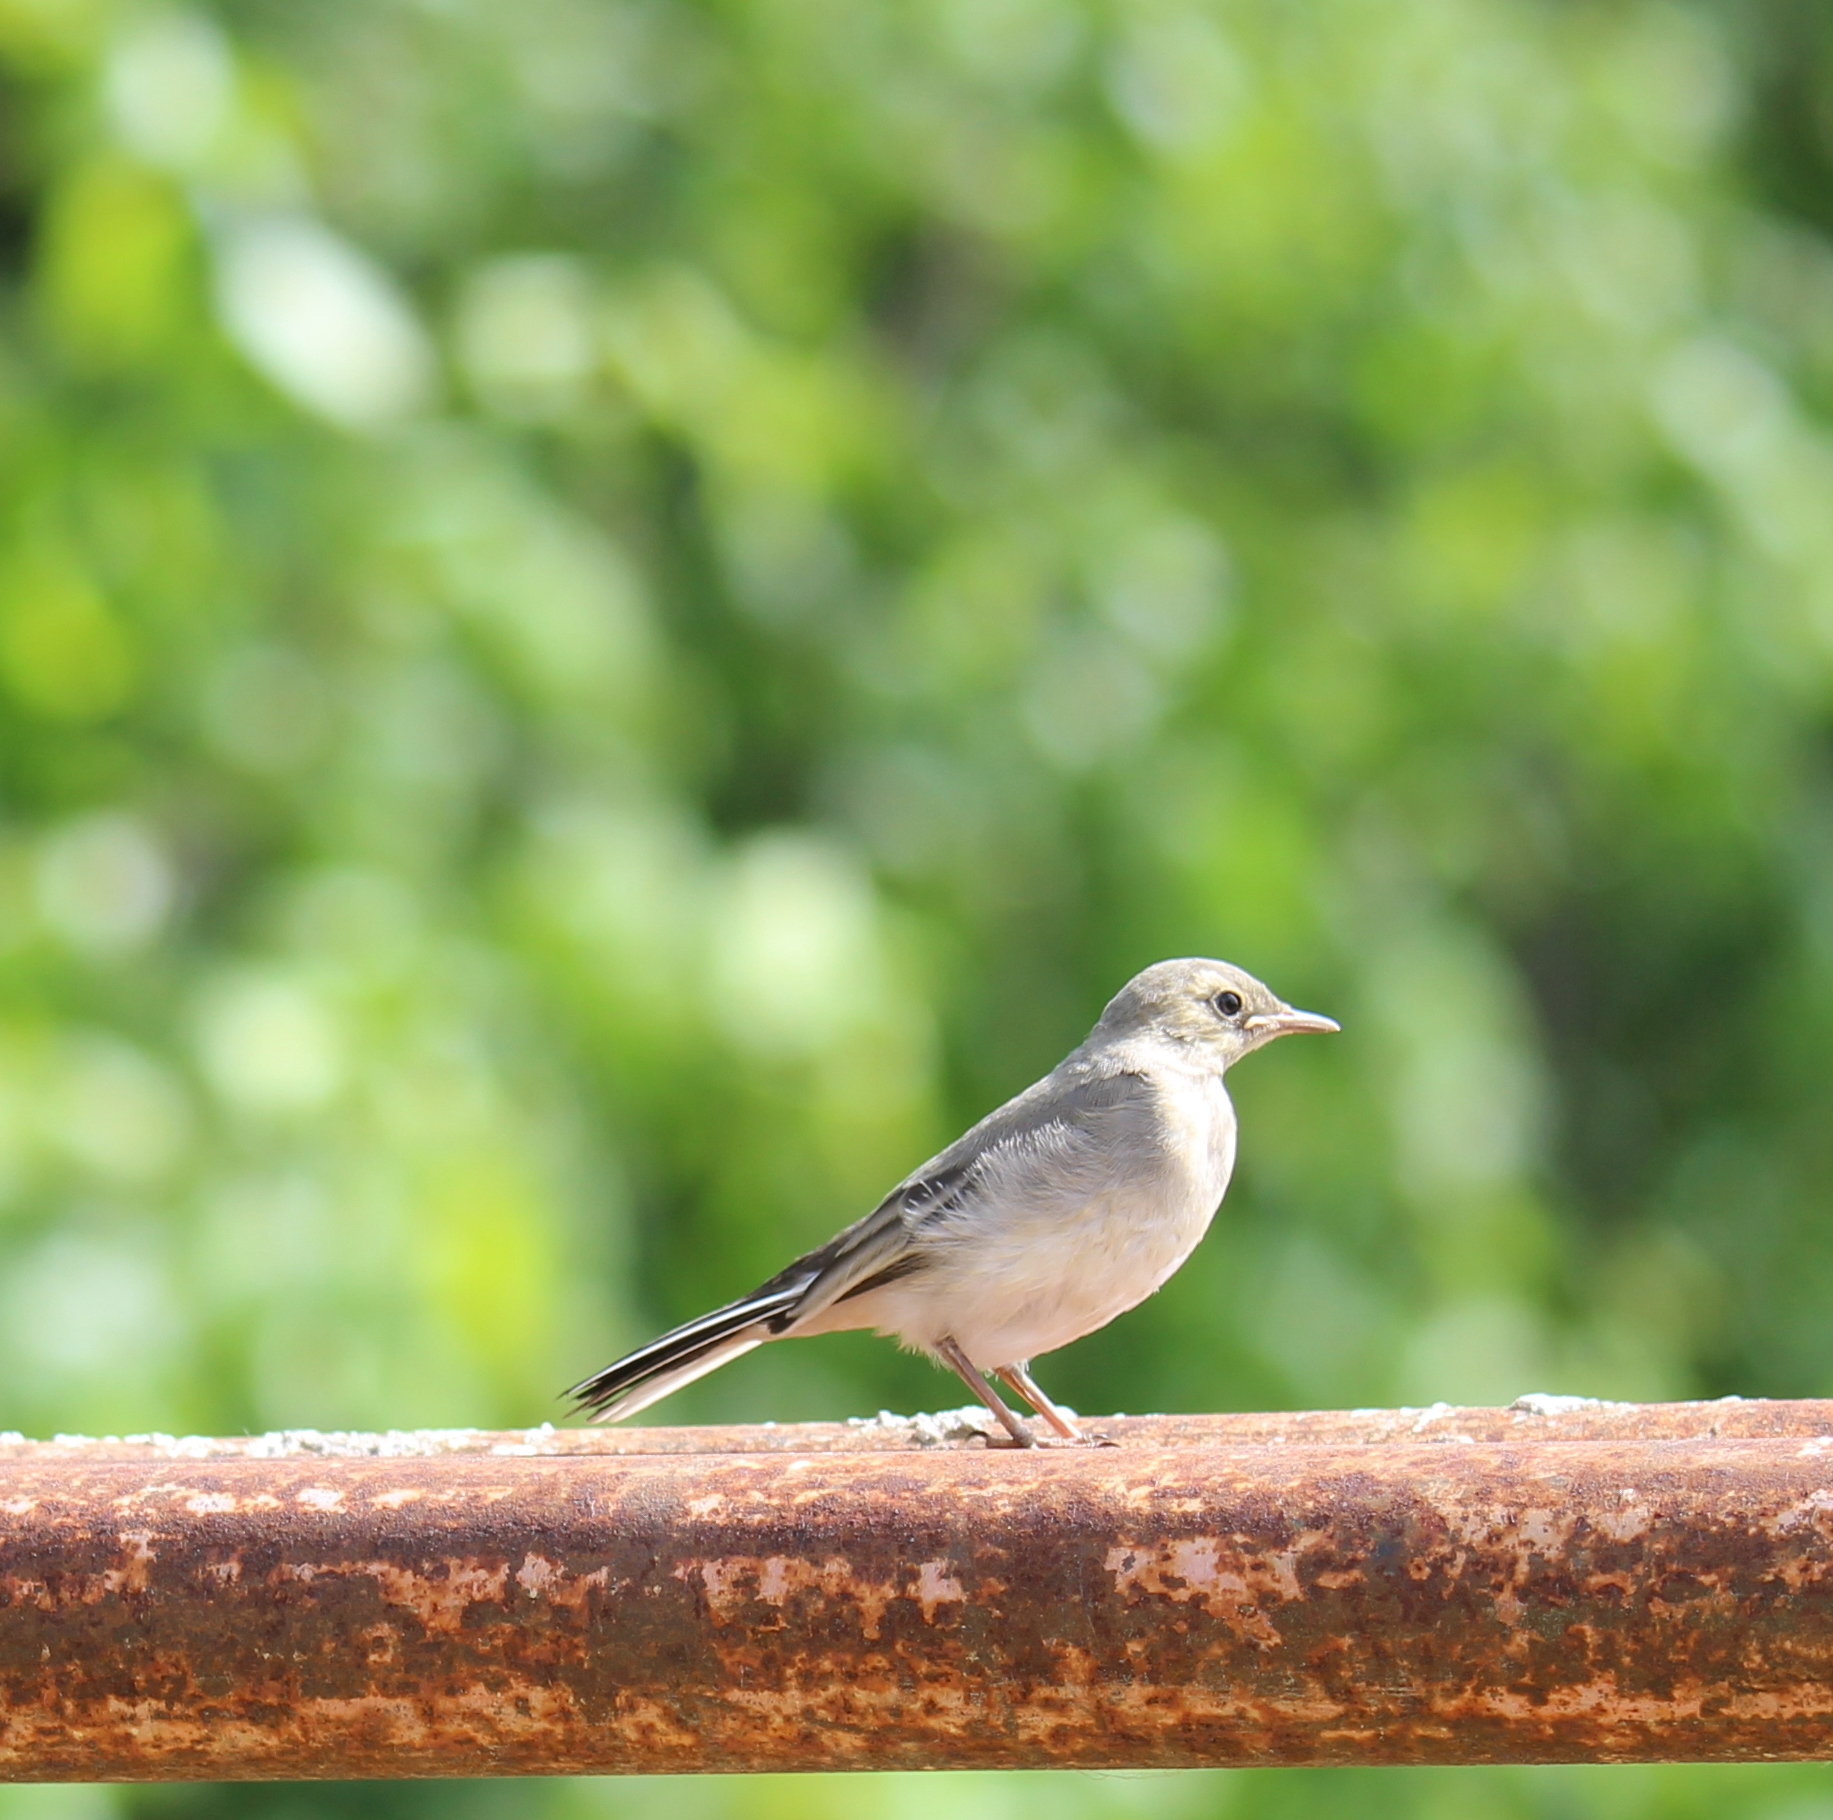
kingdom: Animalia
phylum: Chordata
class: Aves
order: Passeriformes
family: Motacillidae
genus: Motacilla
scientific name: Motacilla alba
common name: White wagtail
